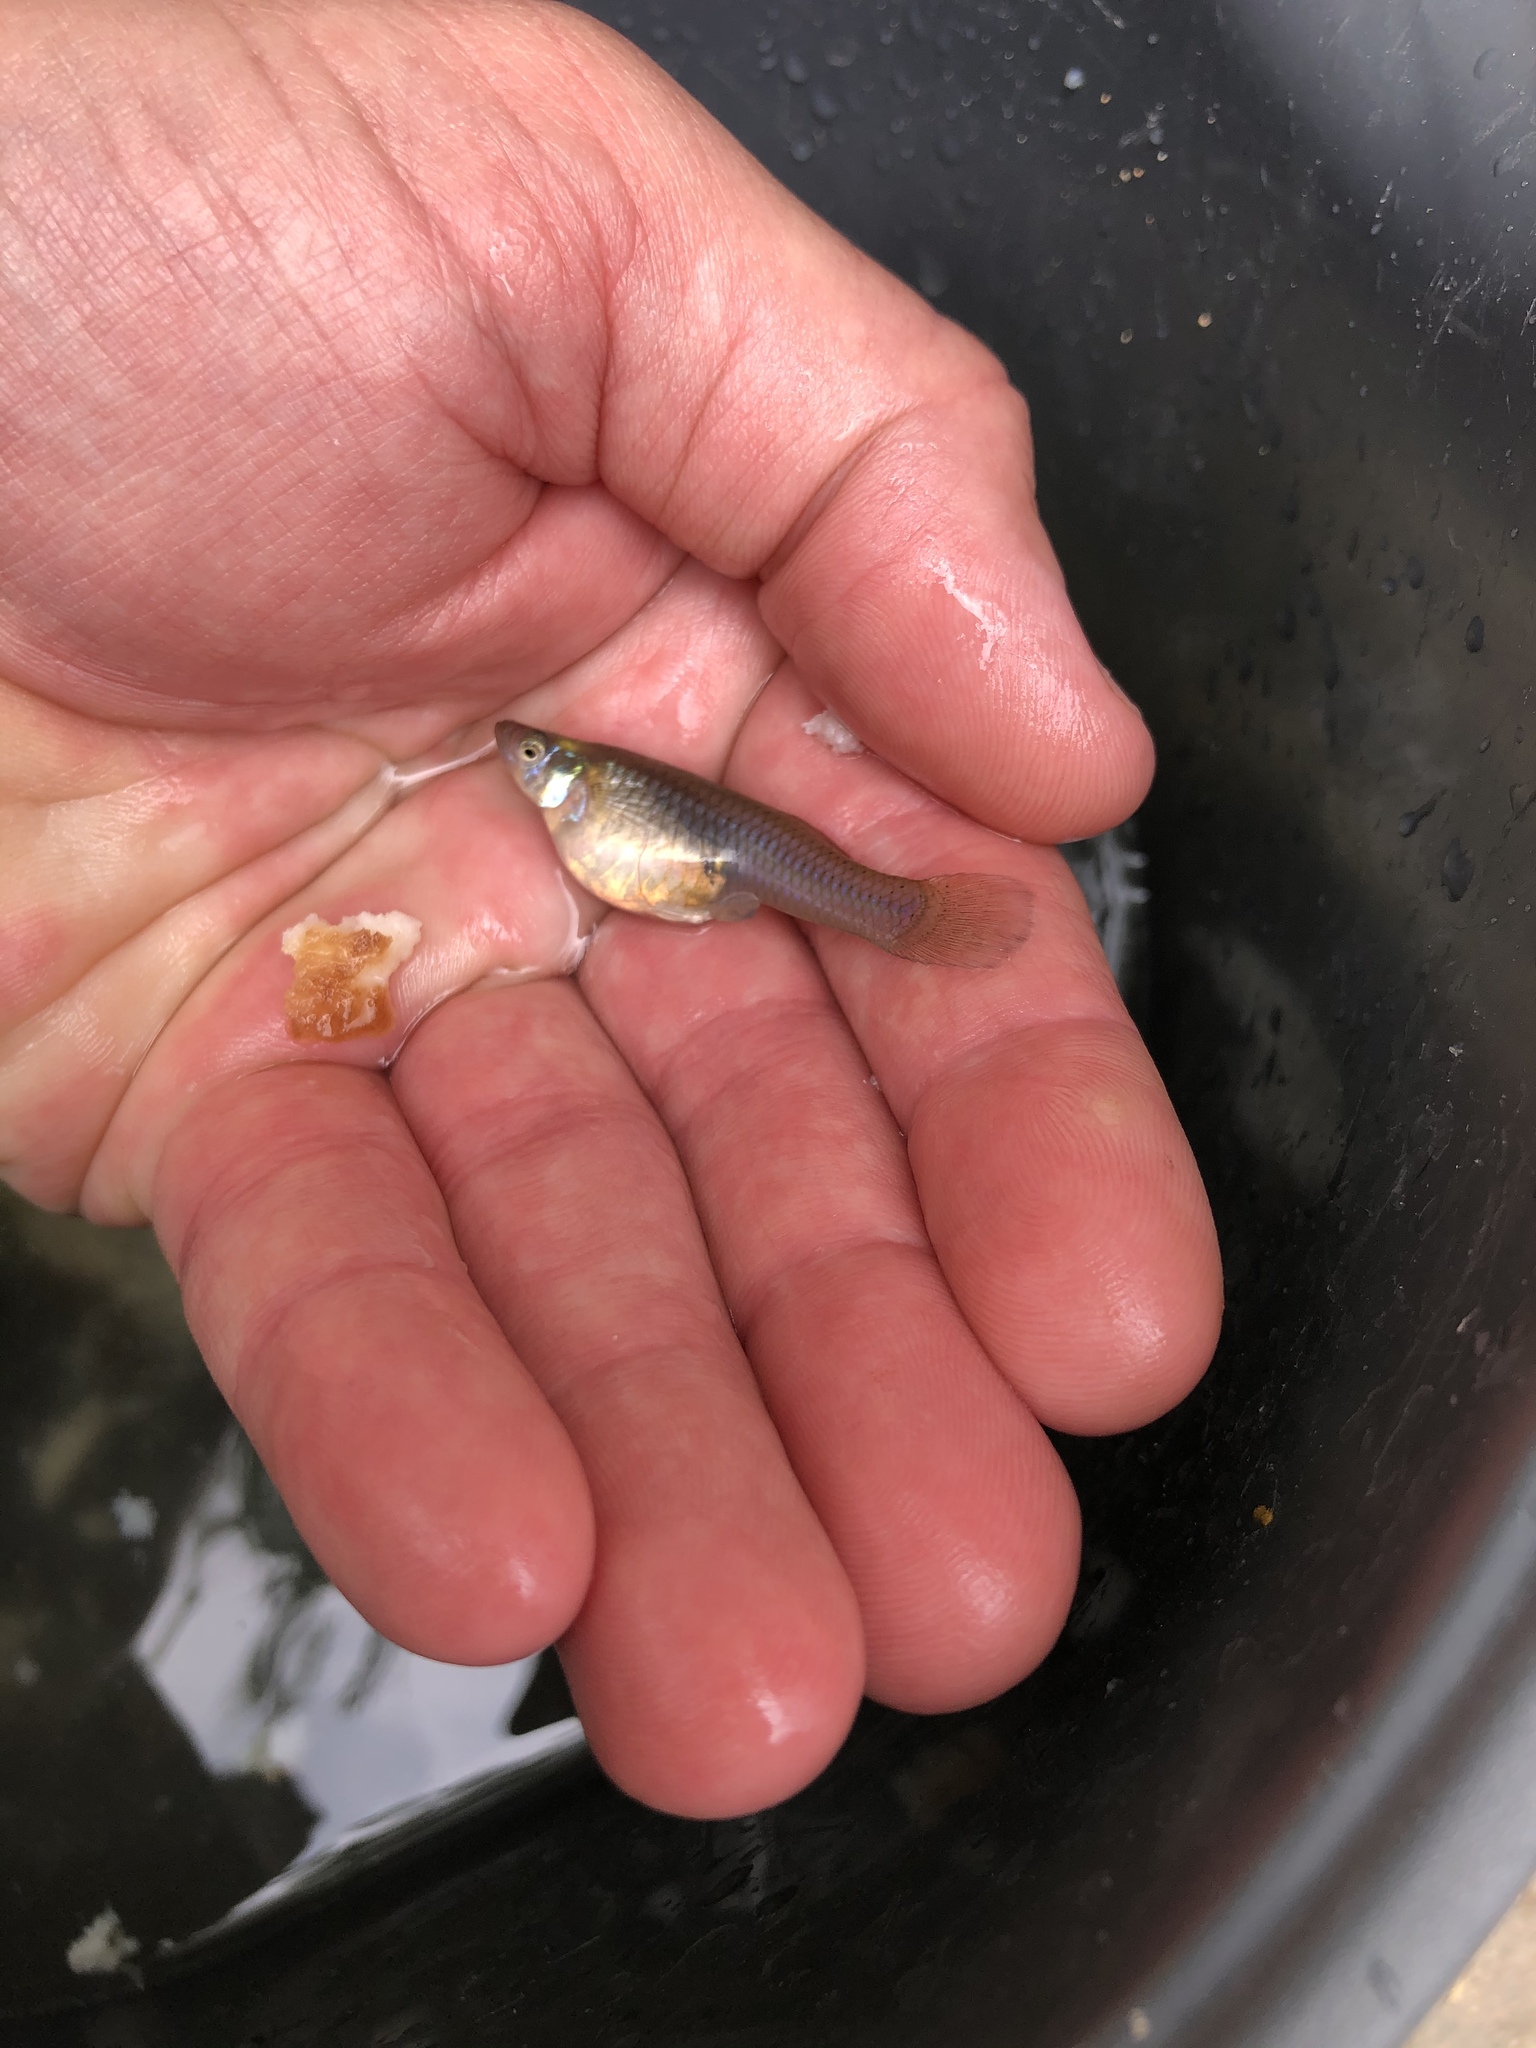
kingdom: Animalia
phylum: Chordata
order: Cyprinodontiformes
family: Poeciliidae
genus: Gambusia
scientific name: Gambusia affinis
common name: Mosquitofish
